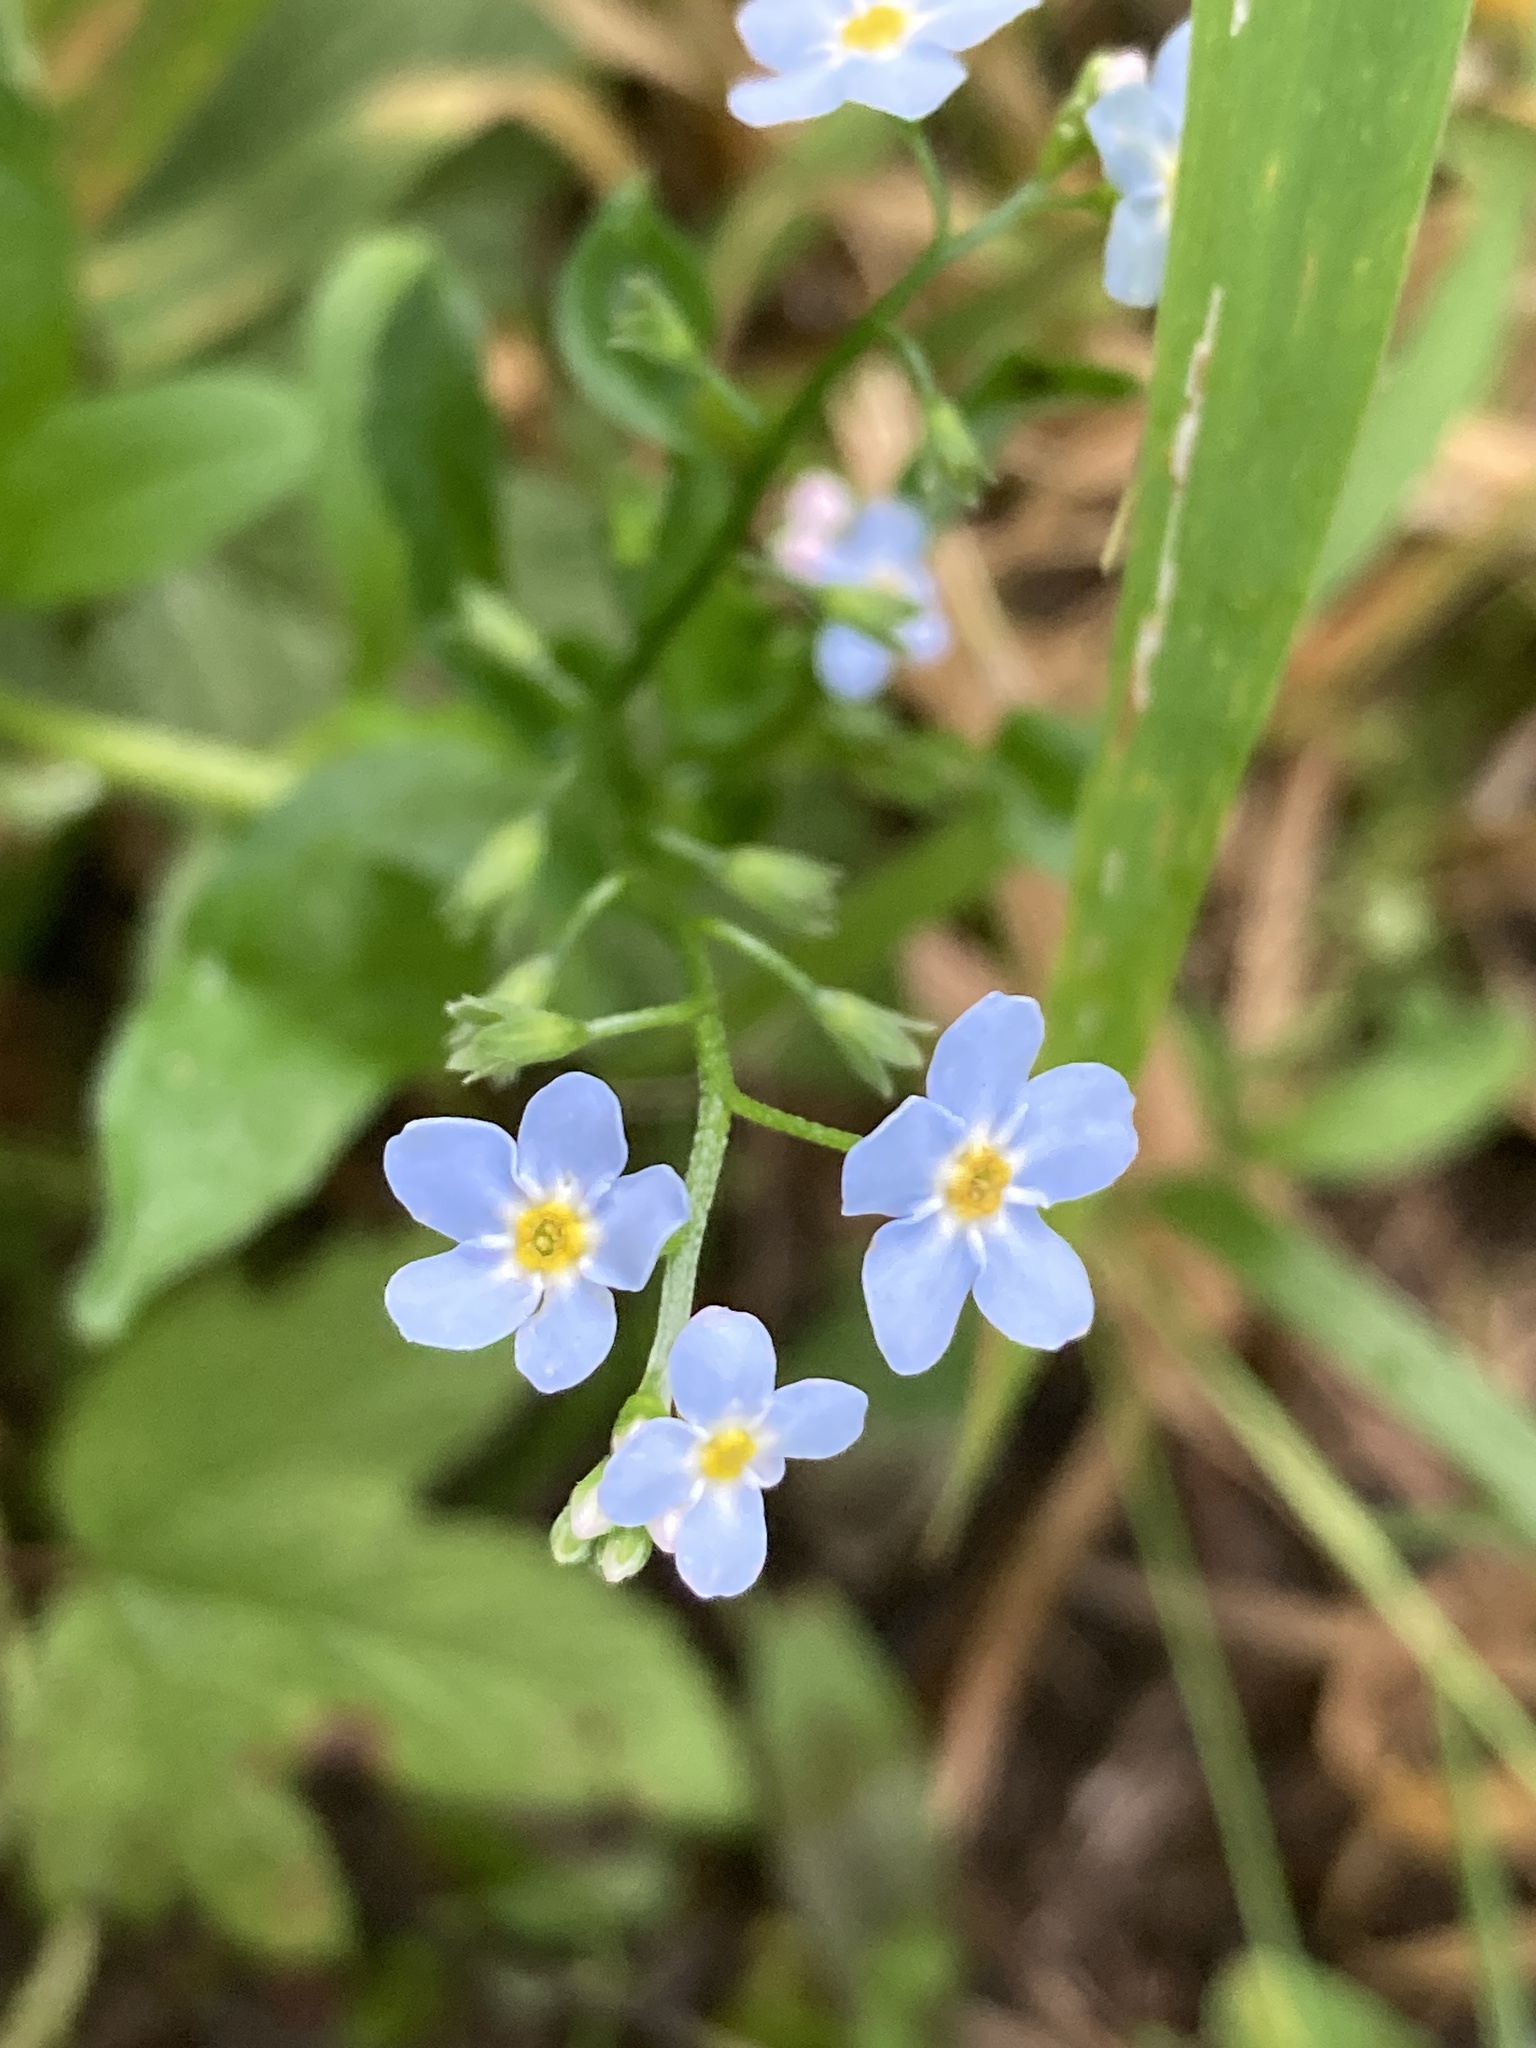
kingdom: Plantae
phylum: Tracheophyta
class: Magnoliopsida
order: Boraginales
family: Boraginaceae
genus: Myosotis
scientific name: Myosotis scorpioides
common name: Water forget-me-not
